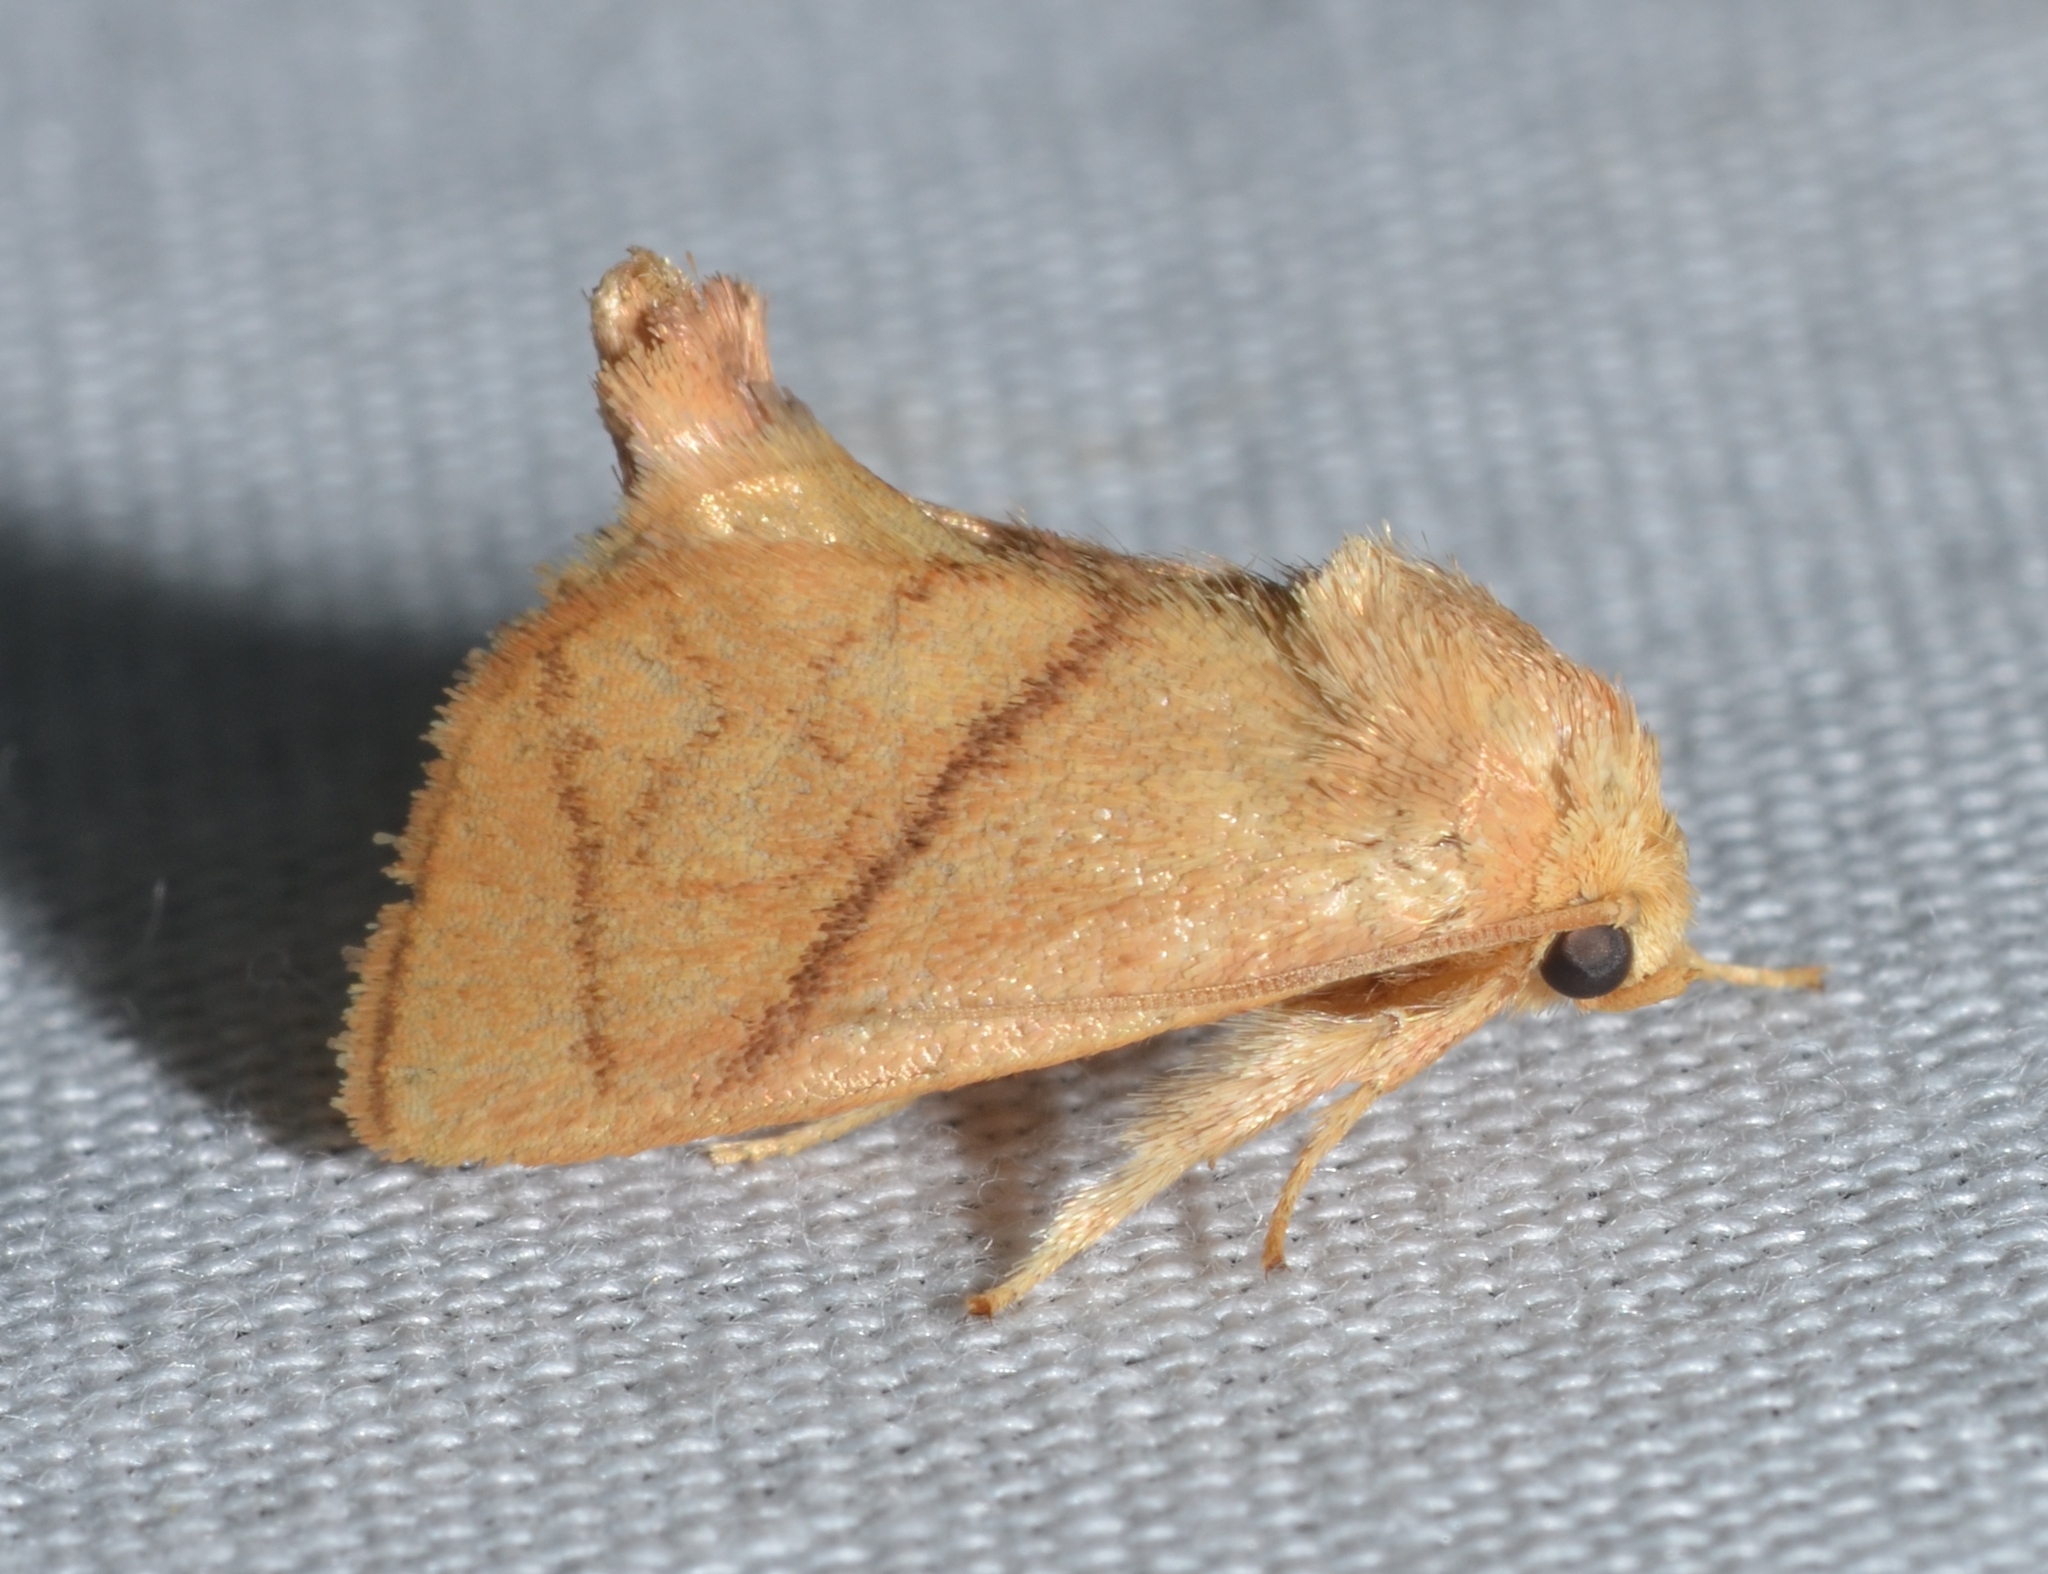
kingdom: Animalia
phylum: Arthropoda
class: Insecta
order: Lepidoptera
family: Limacodidae
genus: Apoda
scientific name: Apoda y-inversa
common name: Yellow-collared slug moth
